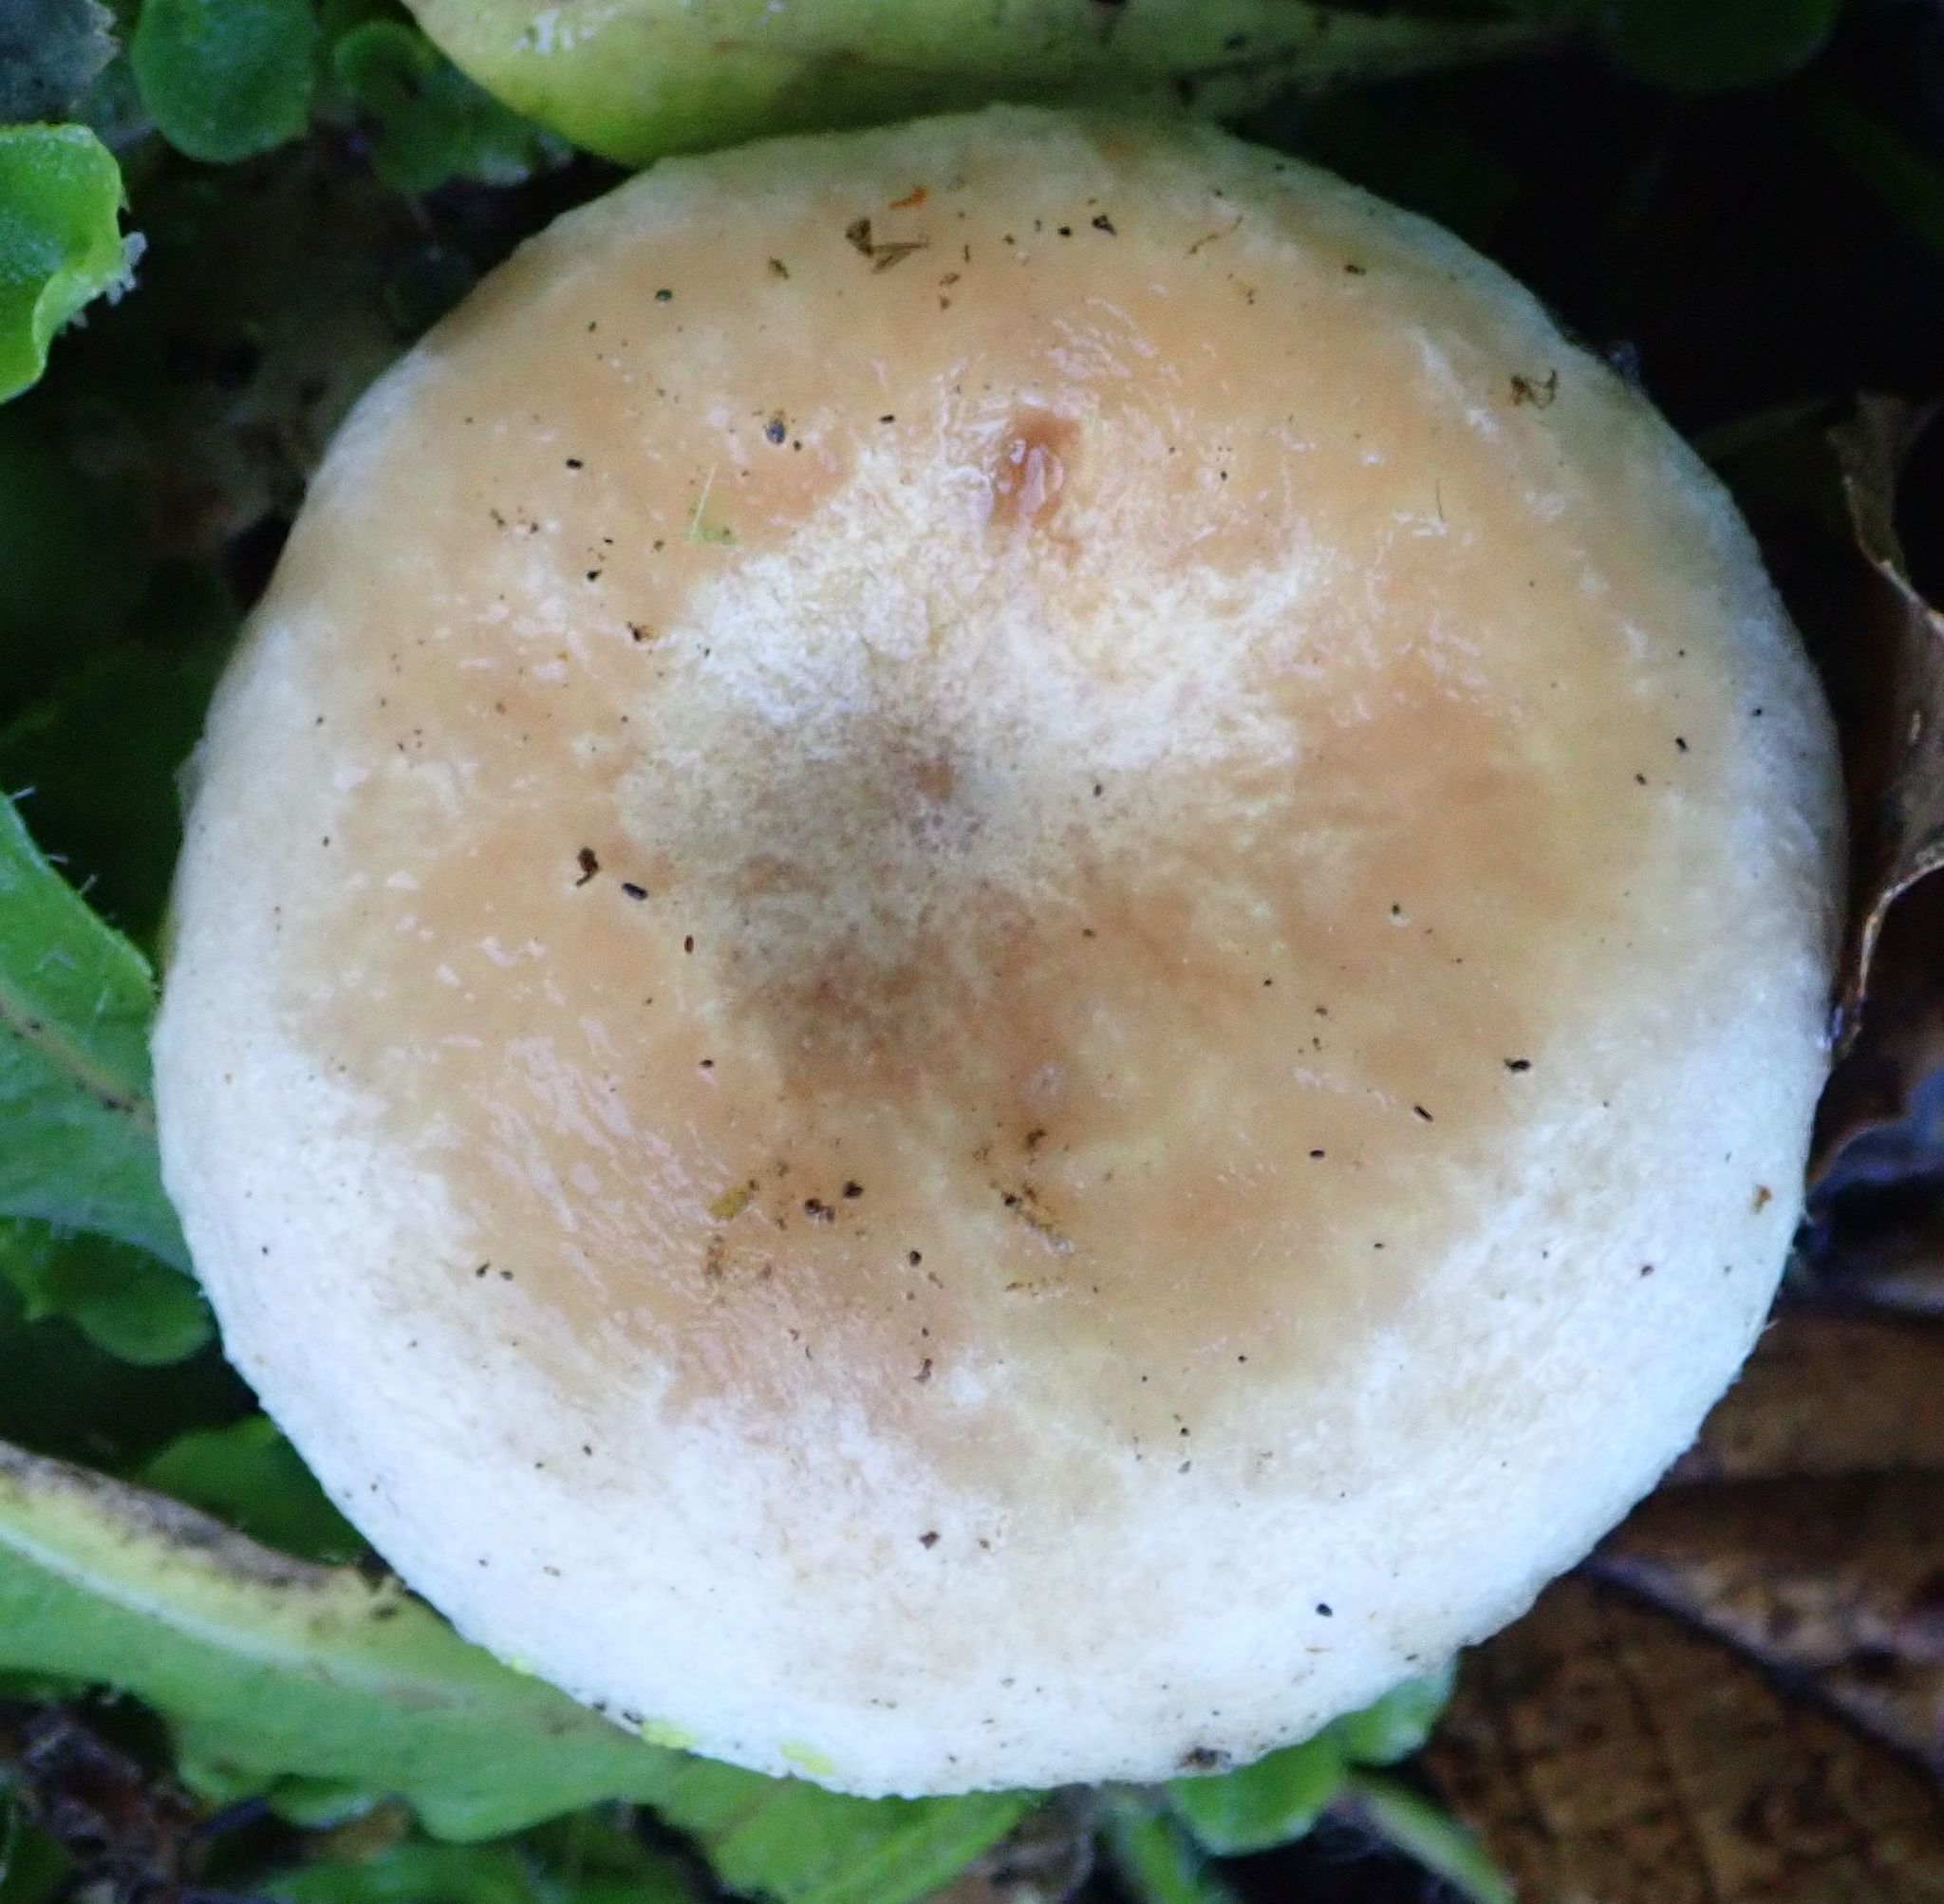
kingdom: Fungi
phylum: Basidiomycota
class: Agaricomycetes
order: Russulales
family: Russulaceae
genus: Lactarius
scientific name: Lactarius pubescens
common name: Bearded milkcap
